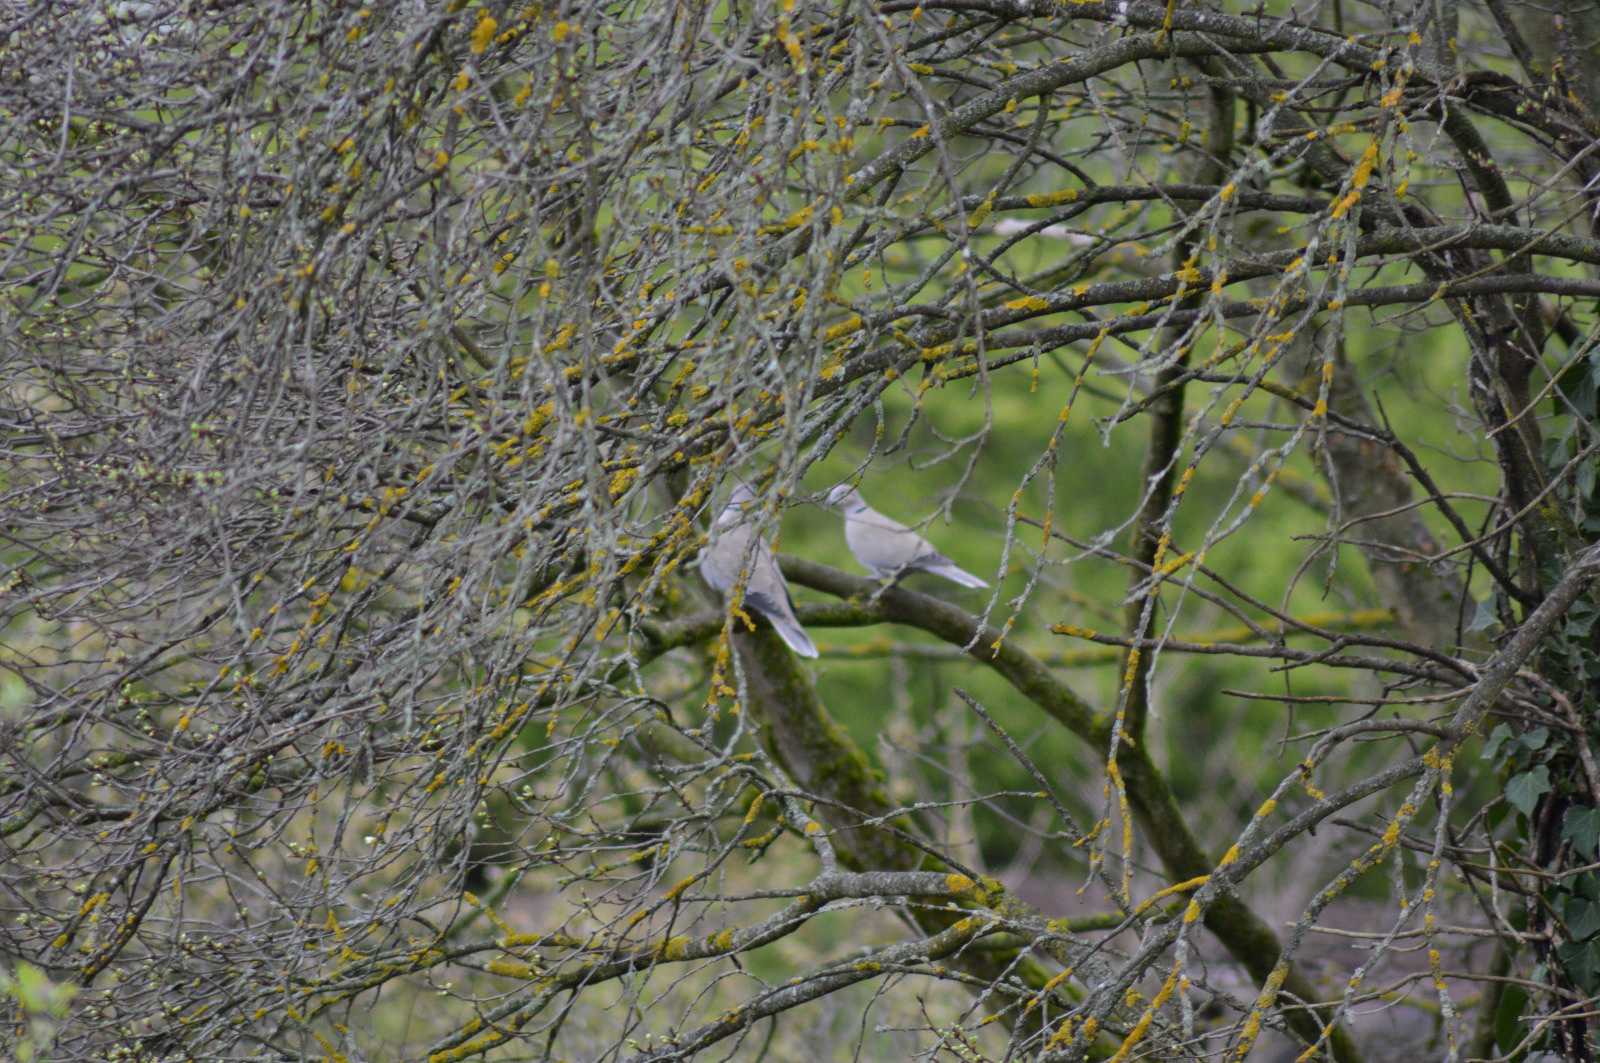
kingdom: Animalia
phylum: Chordata
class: Aves
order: Columbiformes
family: Columbidae
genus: Streptopelia
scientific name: Streptopelia decaocto
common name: Eurasian collared dove
